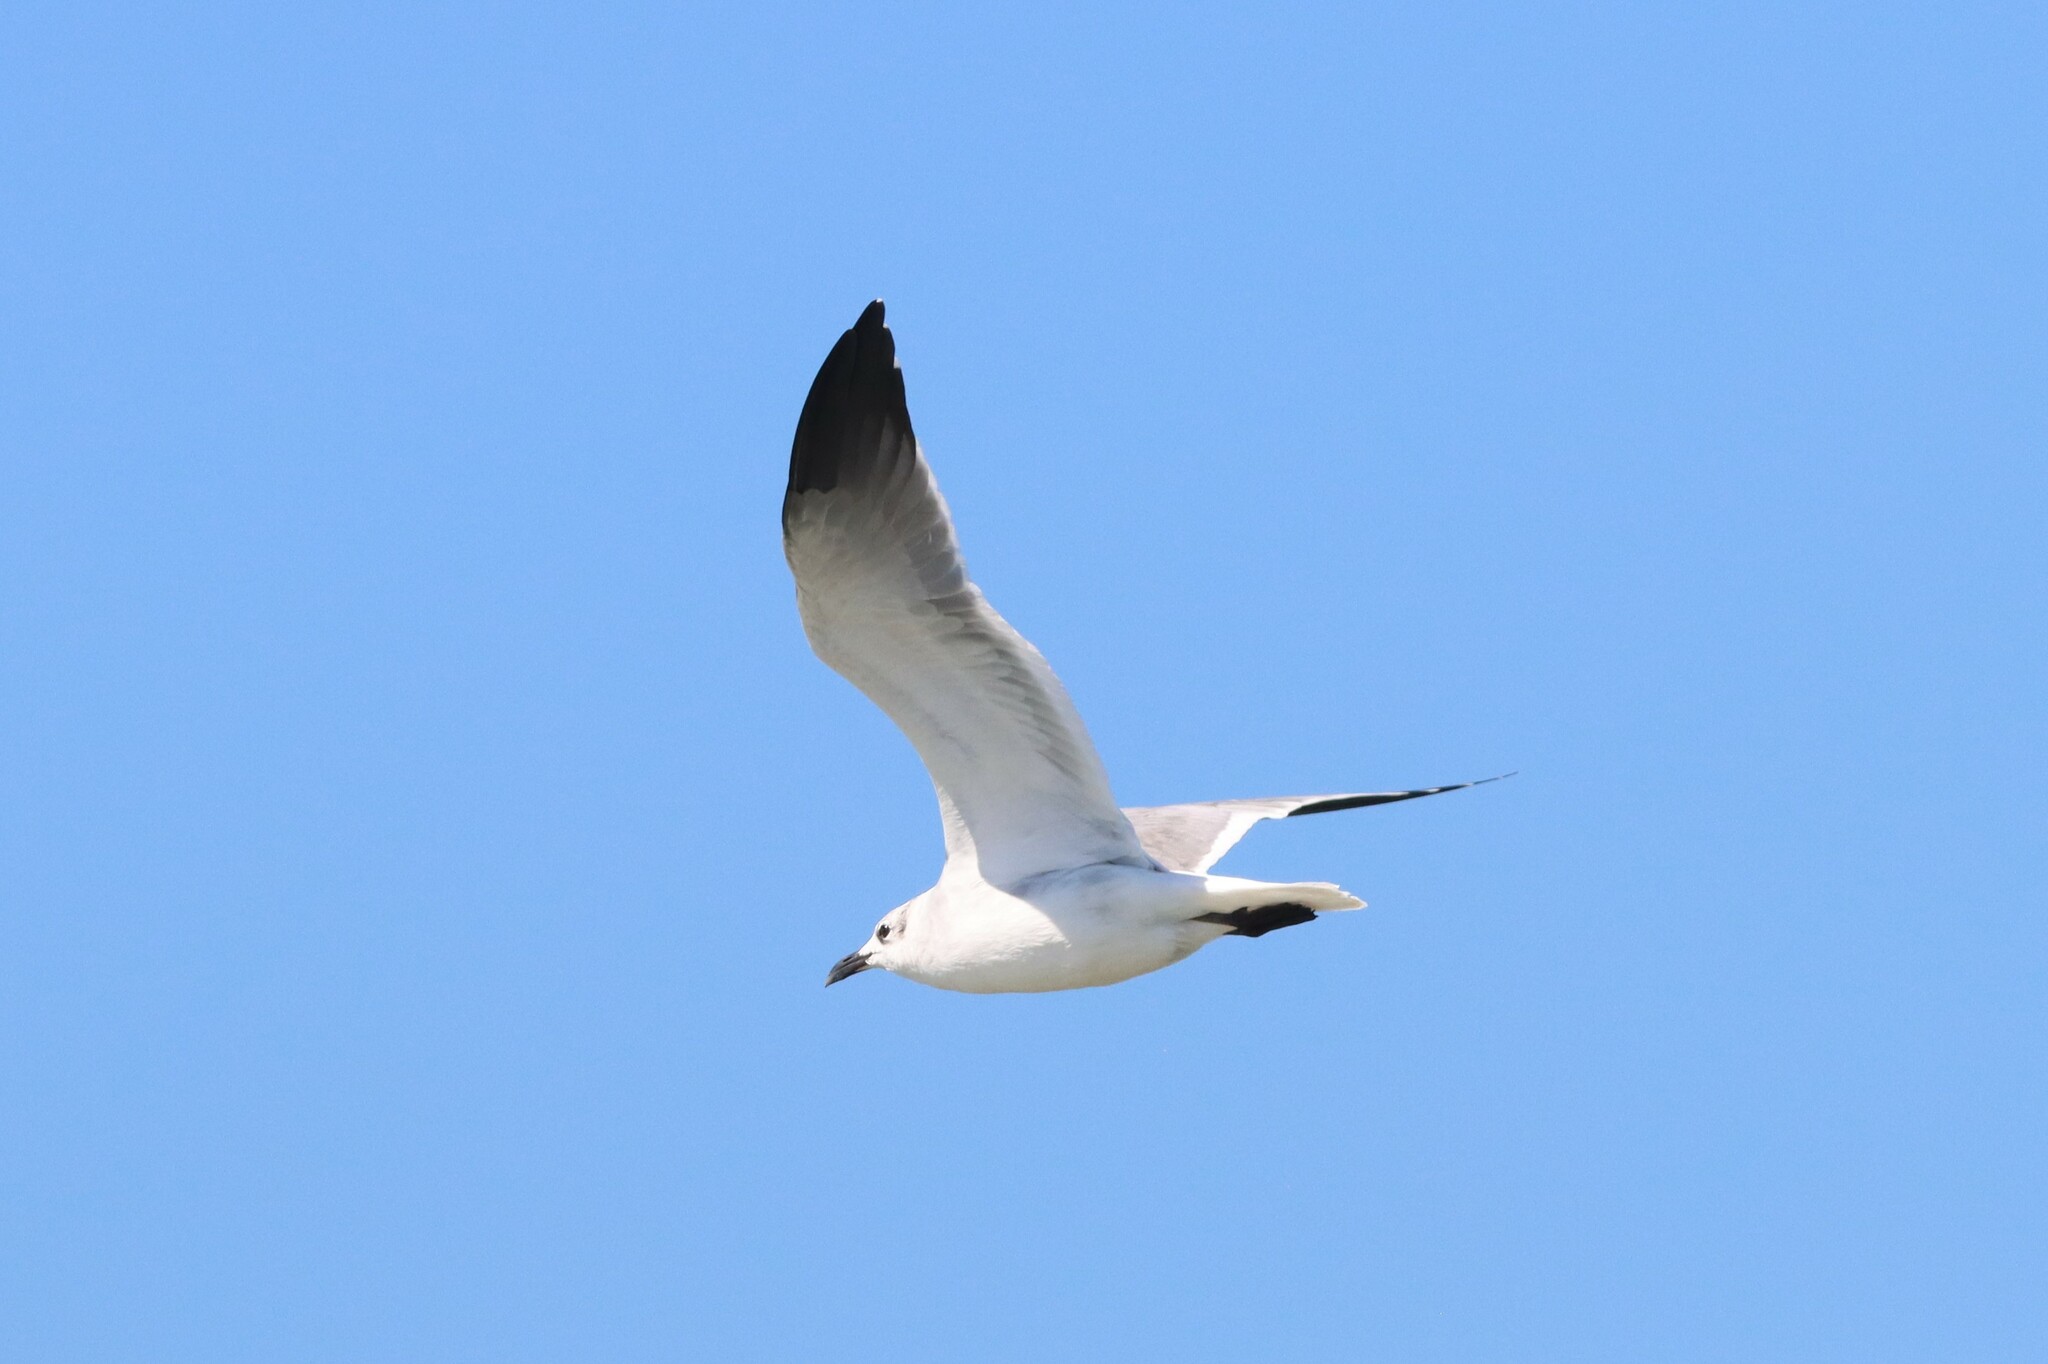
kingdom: Animalia
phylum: Chordata
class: Aves
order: Charadriiformes
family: Laridae
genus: Leucophaeus
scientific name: Leucophaeus atricilla
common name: Laughing gull
